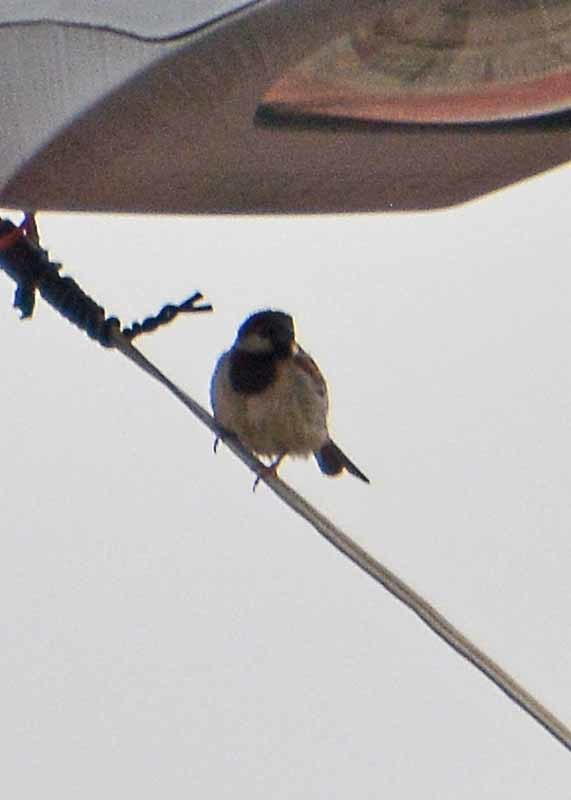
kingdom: Animalia
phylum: Chordata
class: Aves
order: Passeriformes
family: Passeridae
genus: Passer
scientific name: Passer domesticus
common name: House sparrow
